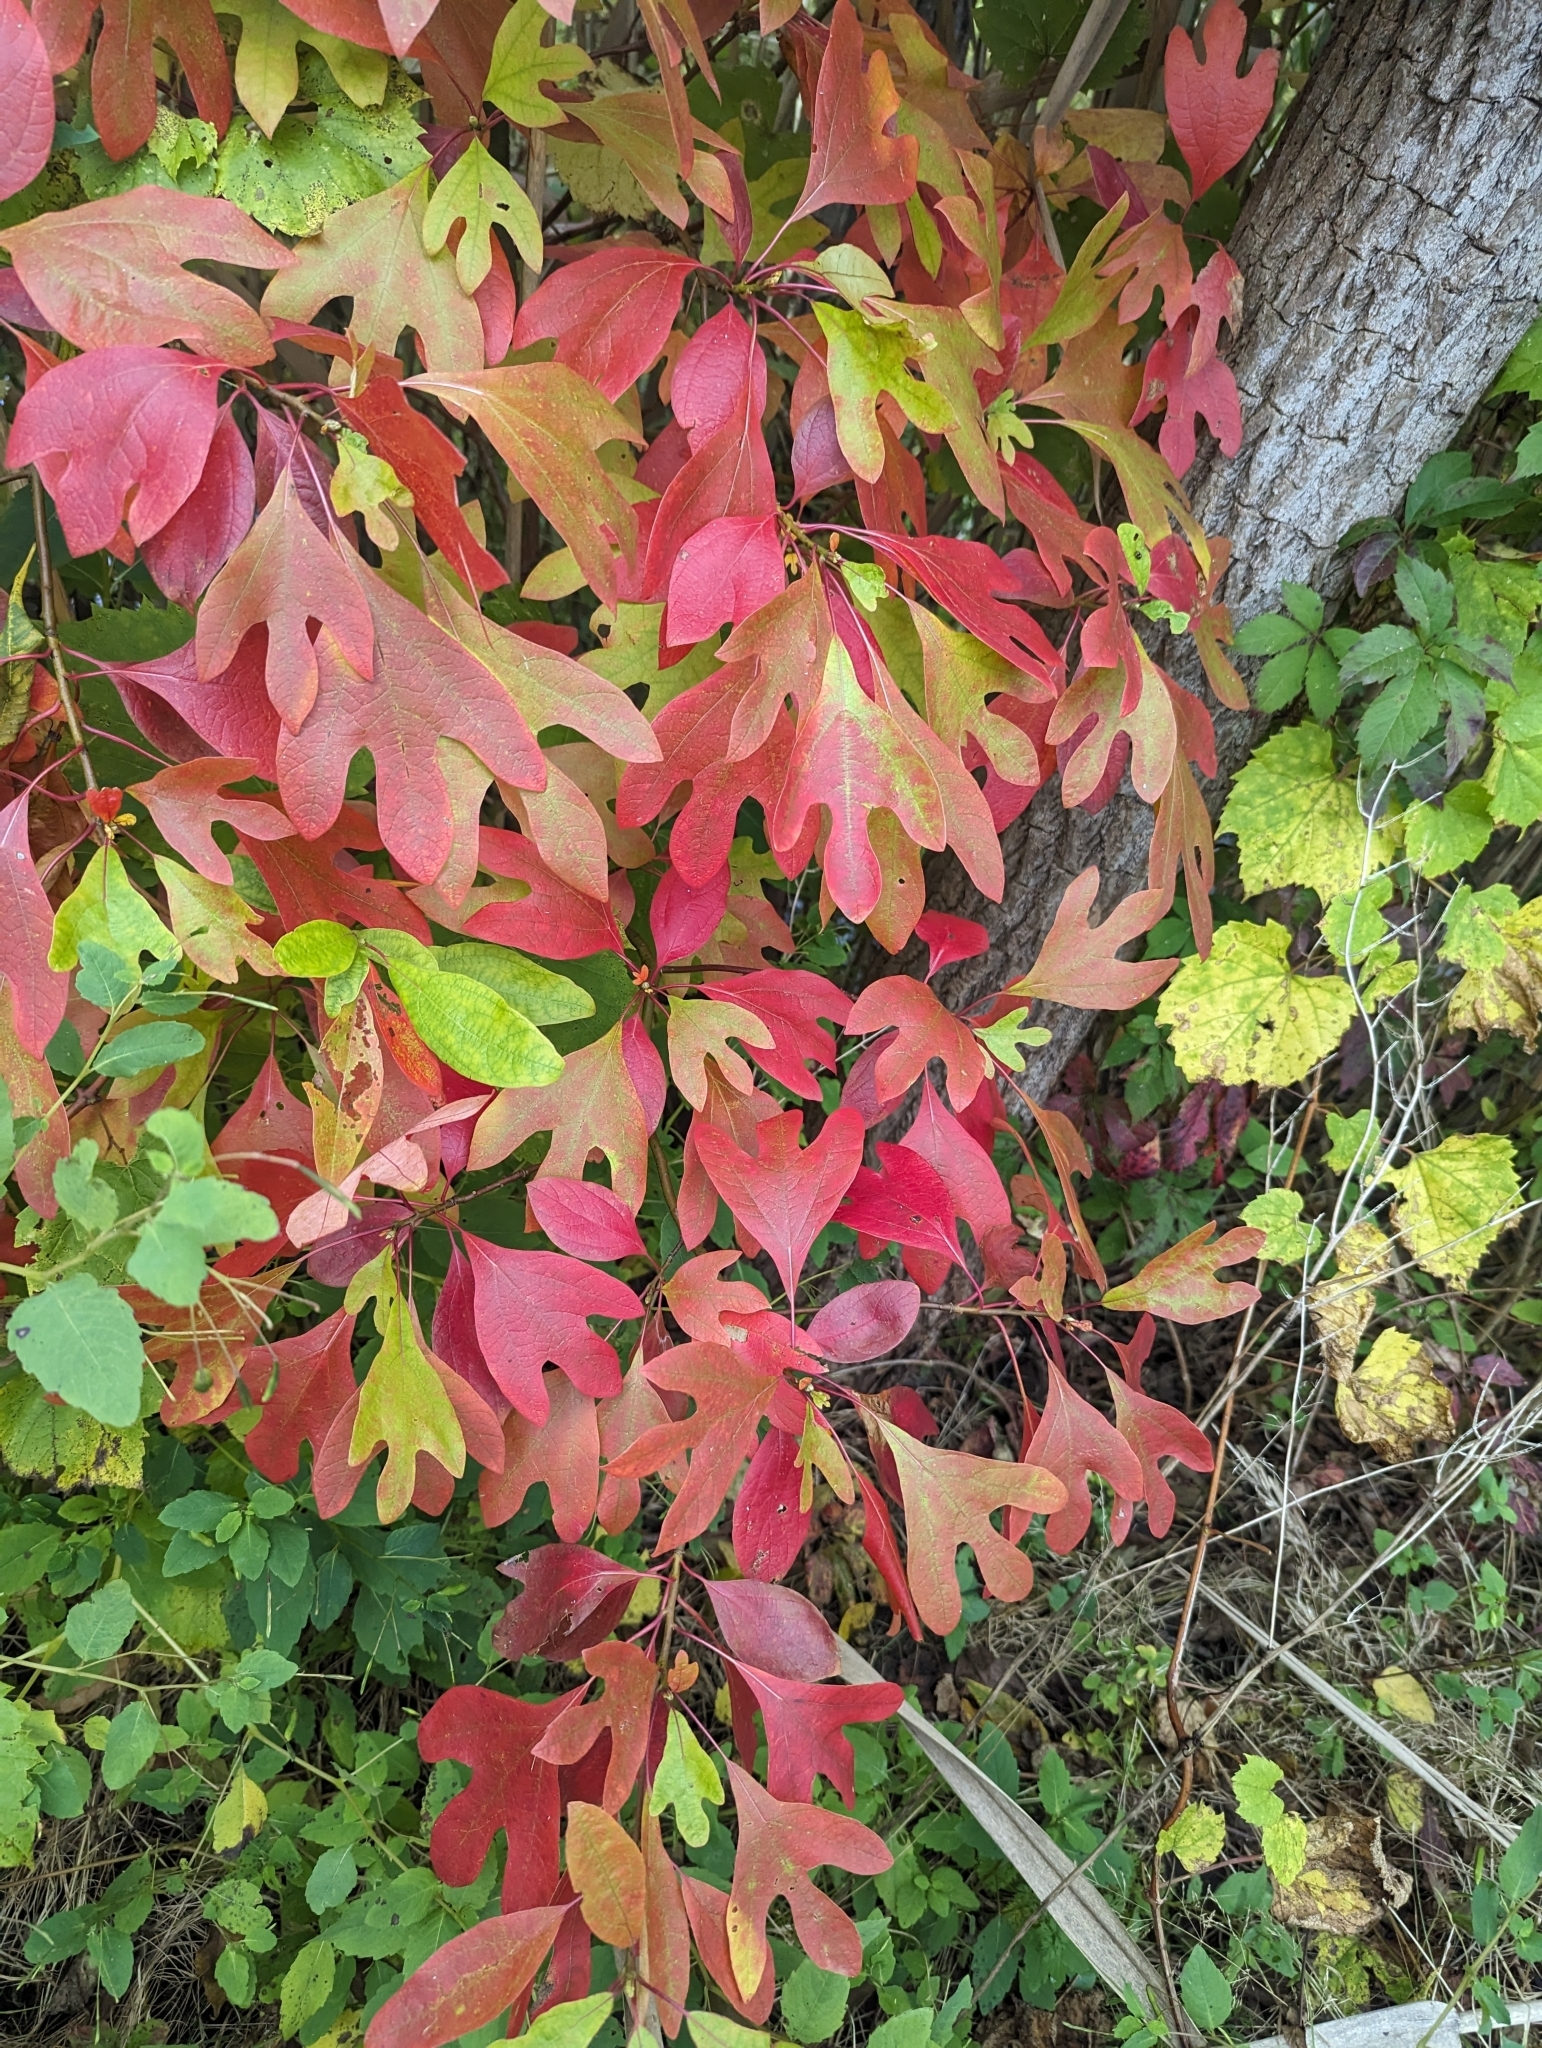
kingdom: Plantae
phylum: Tracheophyta
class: Magnoliopsida
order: Laurales
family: Lauraceae
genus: Sassafras
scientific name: Sassafras albidum
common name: Sassafras
